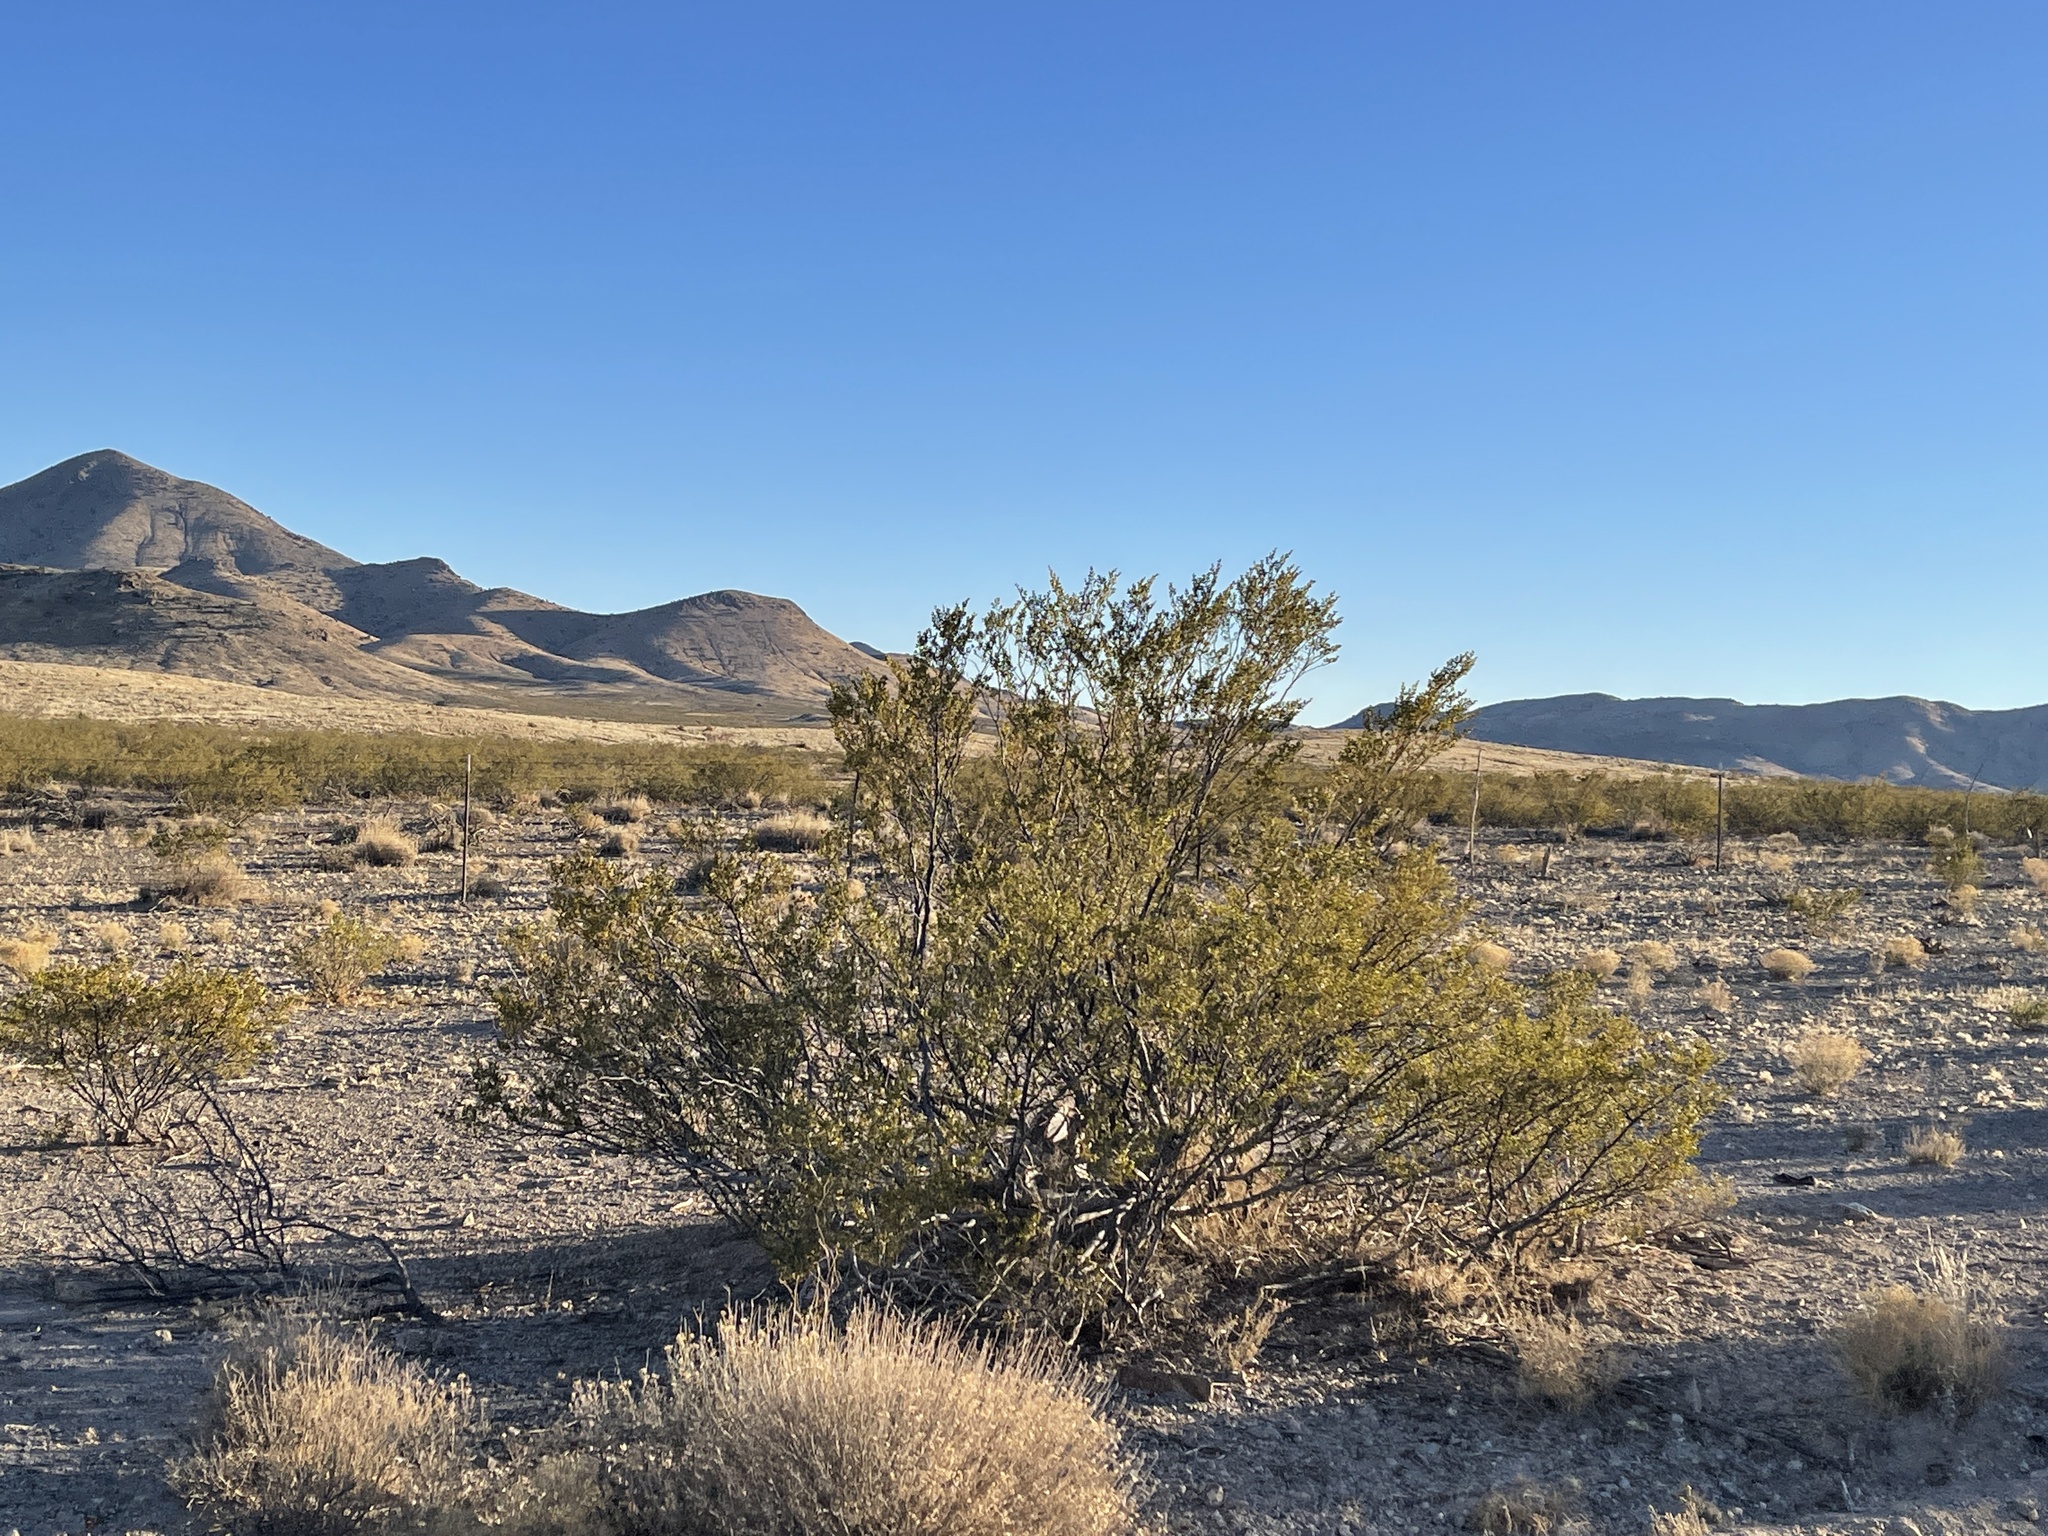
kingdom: Plantae
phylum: Tracheophyta
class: Magnoliopsida
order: Zygophyllales
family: Zygophyllaceae
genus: Larrea
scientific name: Larrea tridentata
